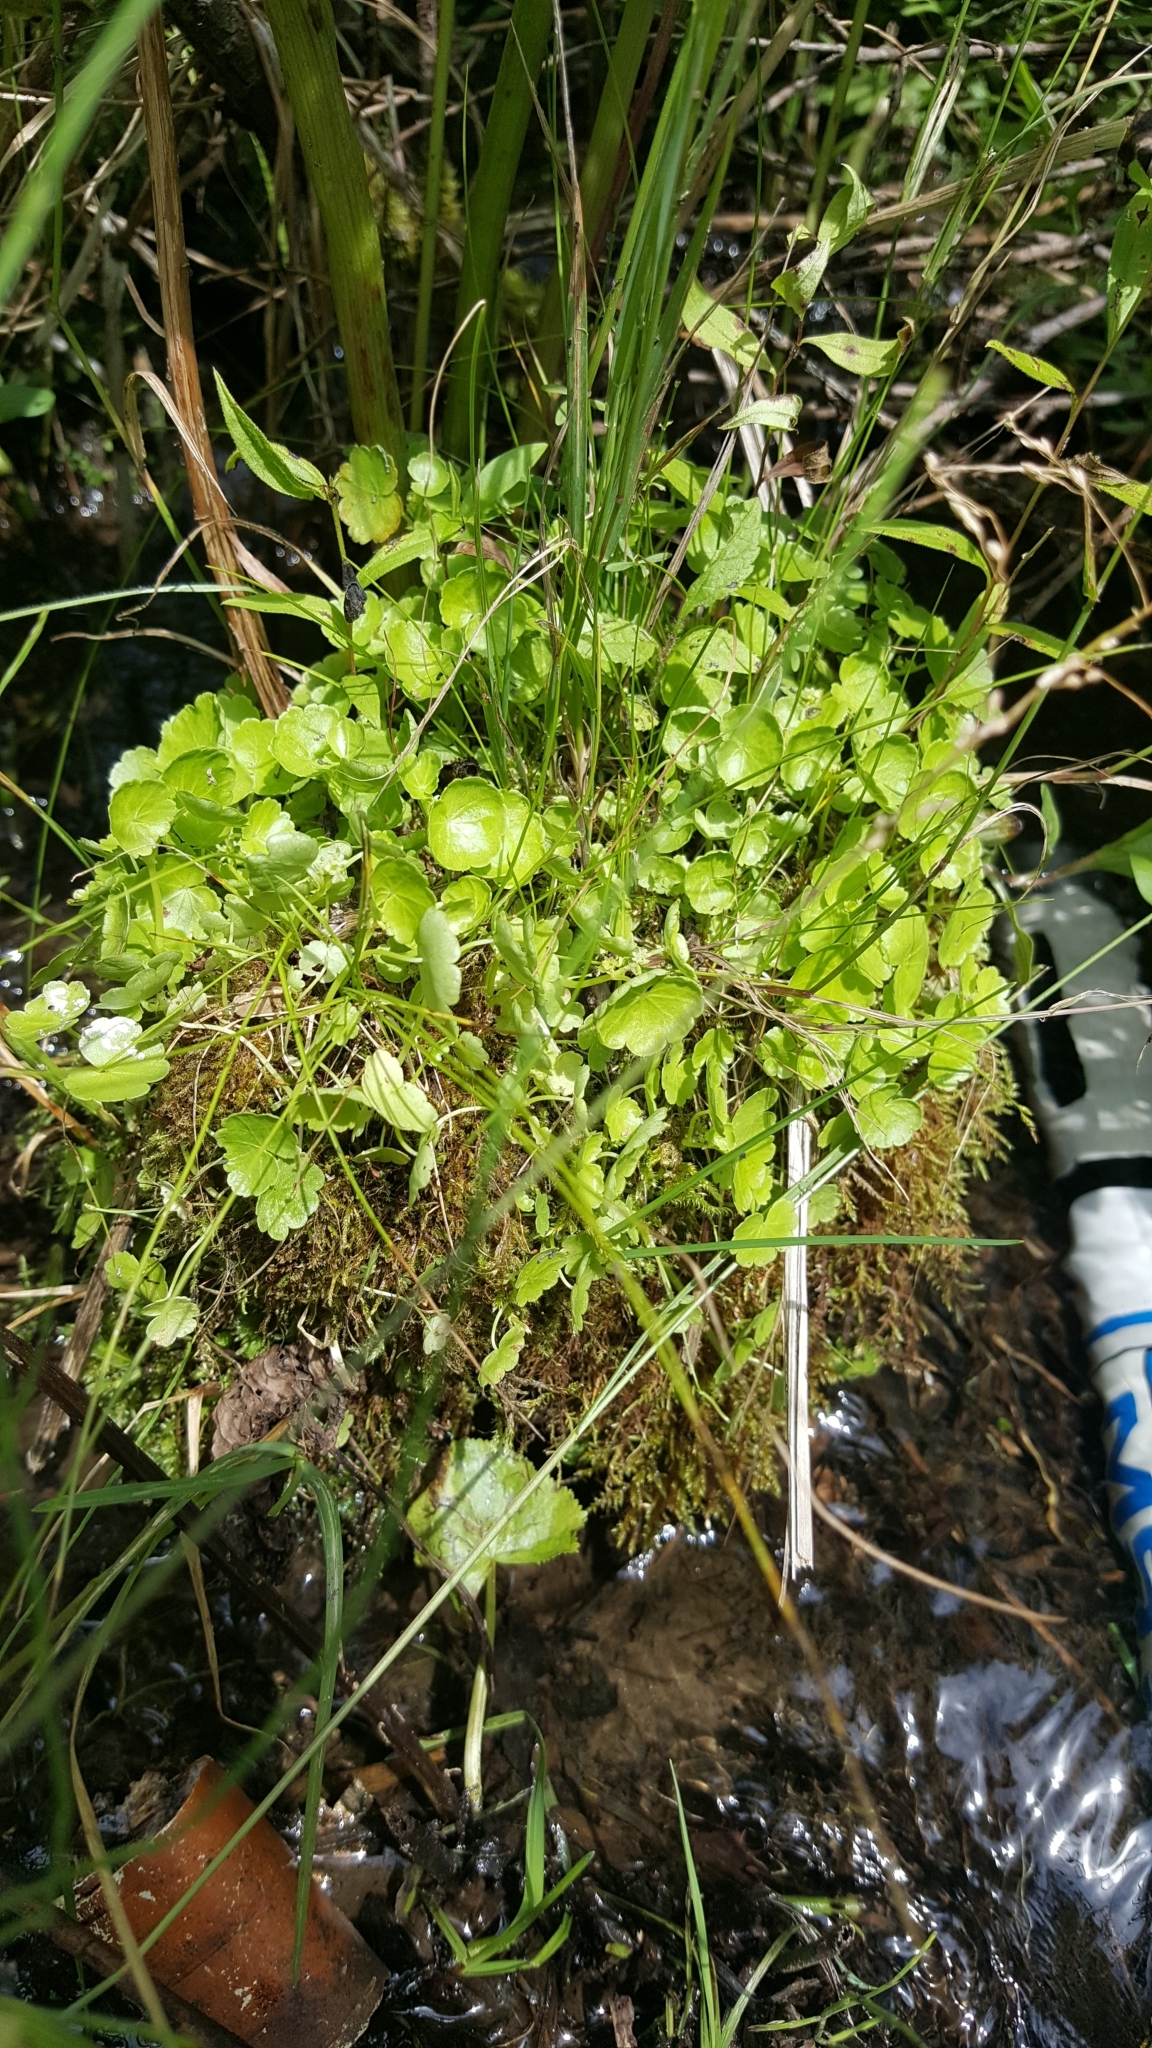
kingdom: Plantae
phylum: Tracheophyta
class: Magnoliopsida
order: Apiales
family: Araliaceae
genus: Hydrocotyle
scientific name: Hydrocotyle americana
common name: American water-pennywort
